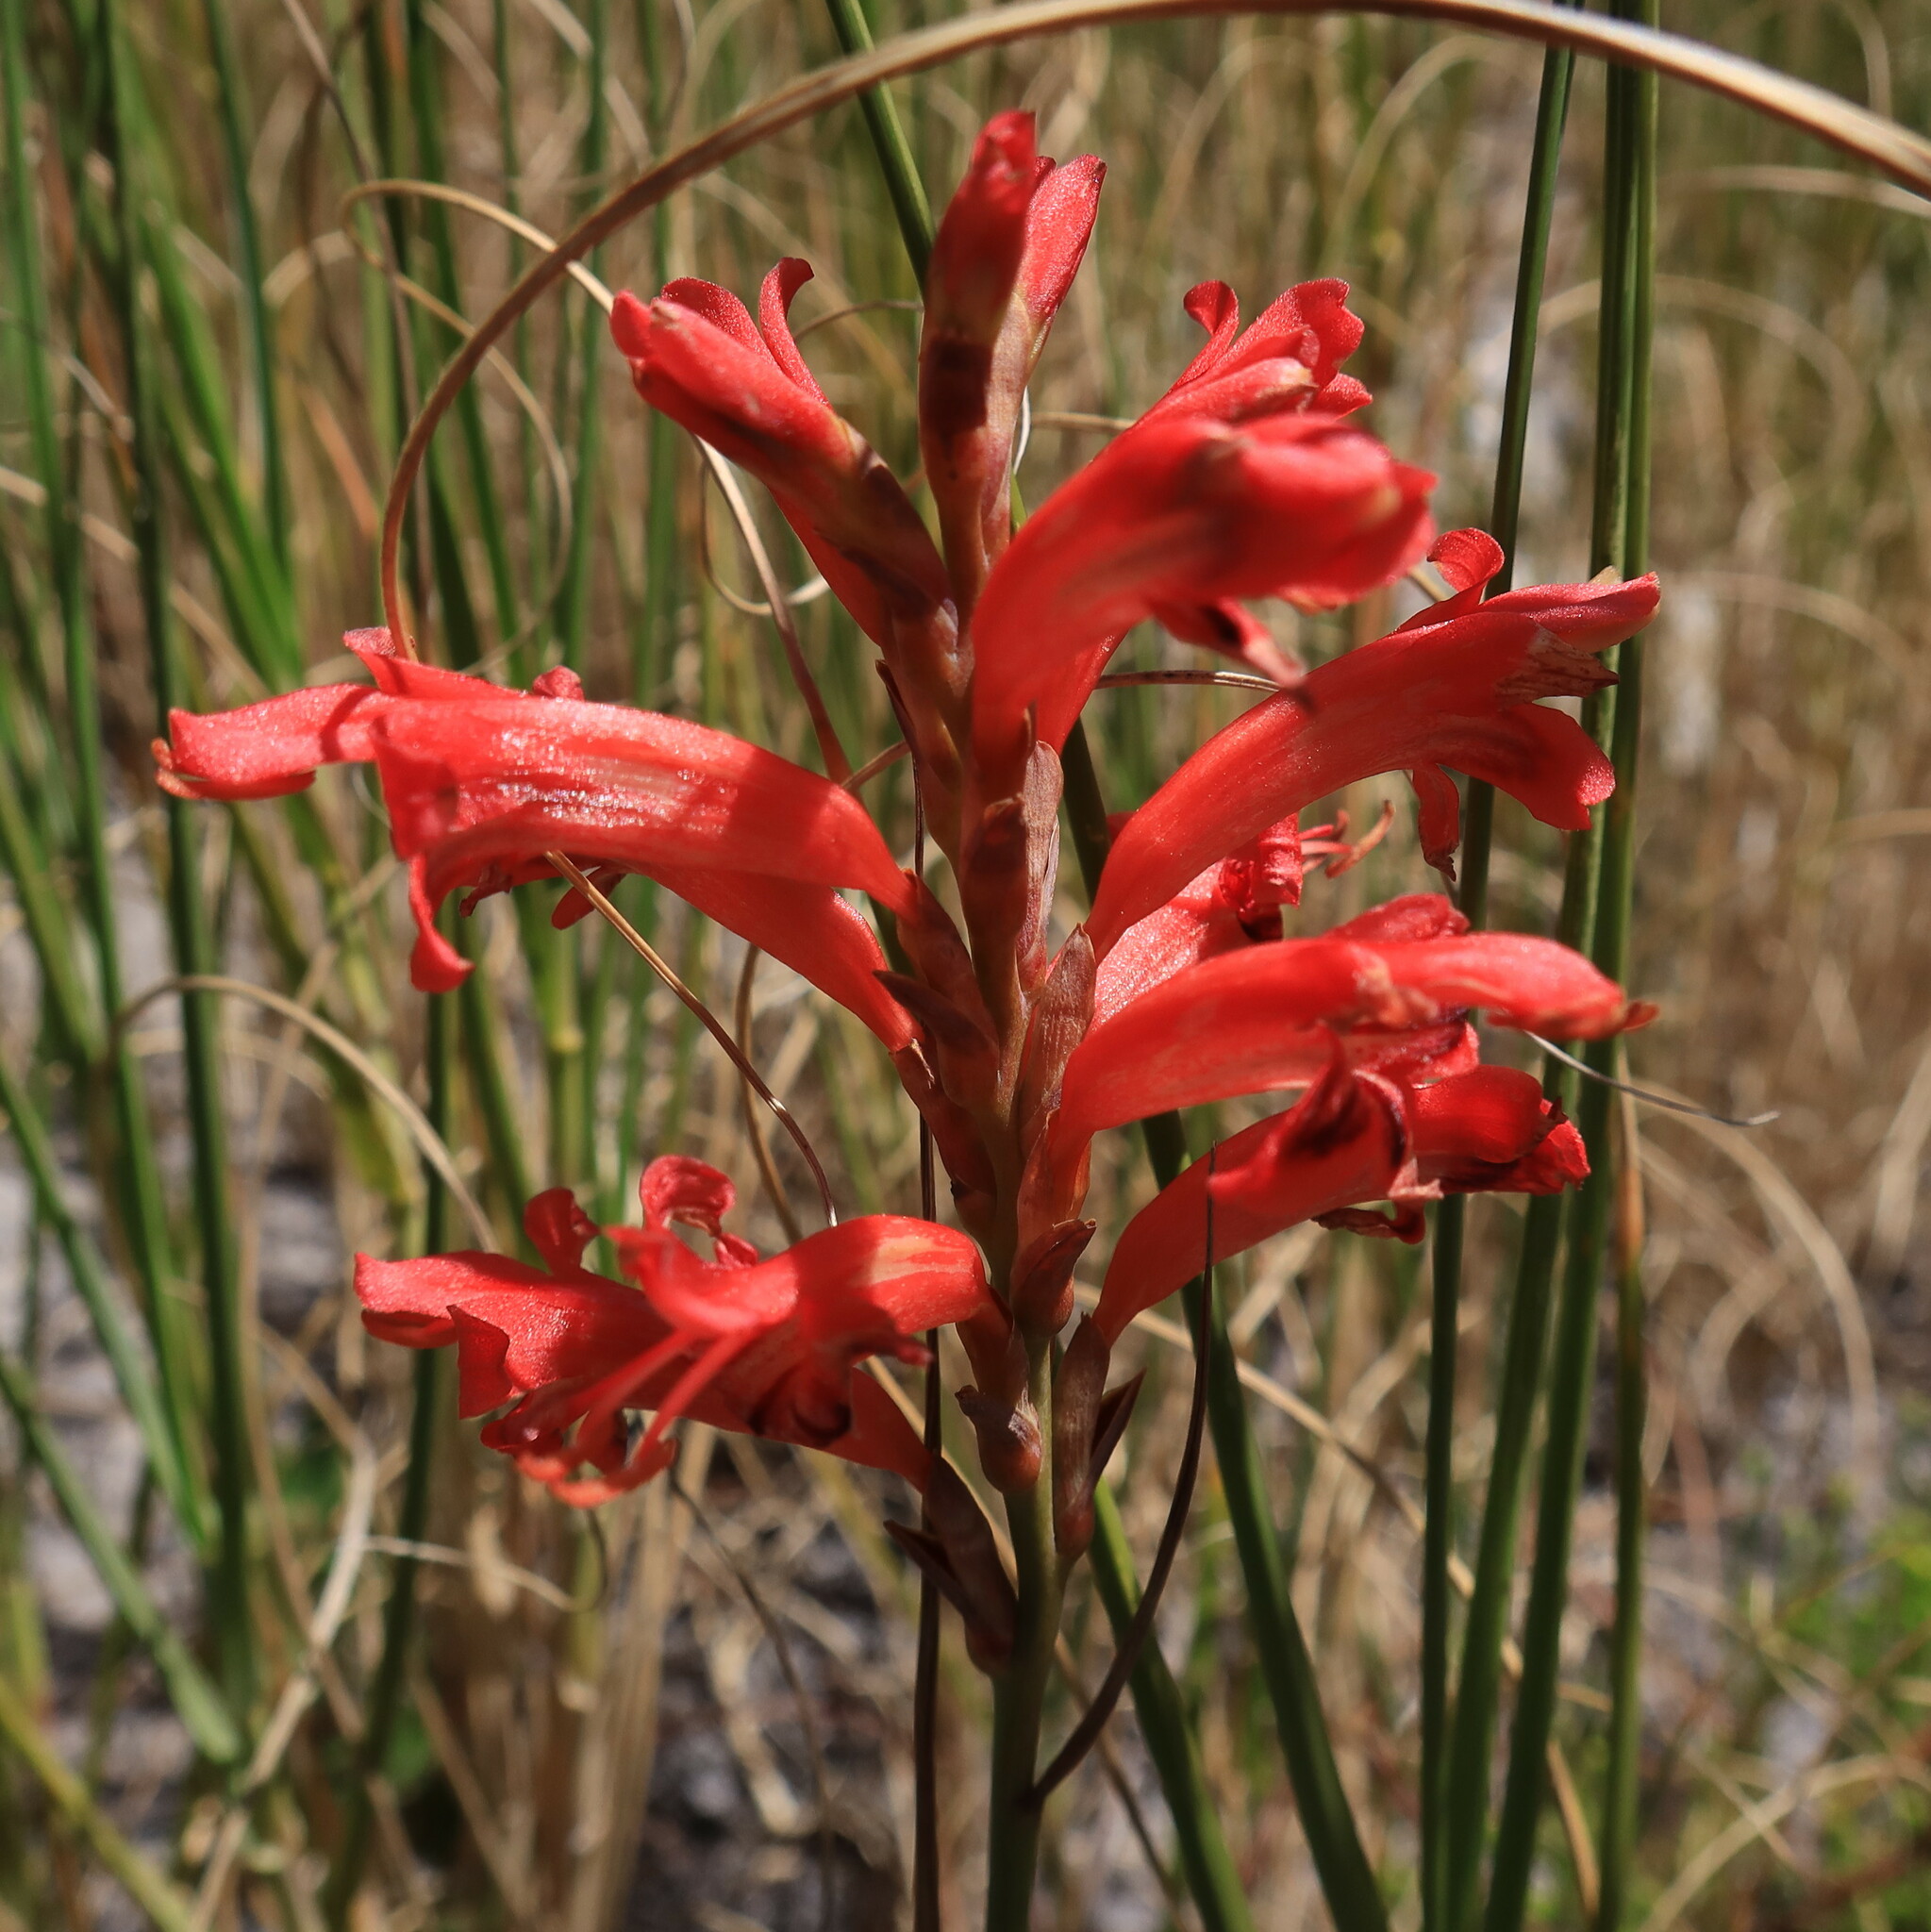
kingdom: Plantae
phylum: Tracheophyta
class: Liliopsida
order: Asparagales
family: Iridaceae
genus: Tritoniopsis
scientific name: Tritoniopsis triticea
